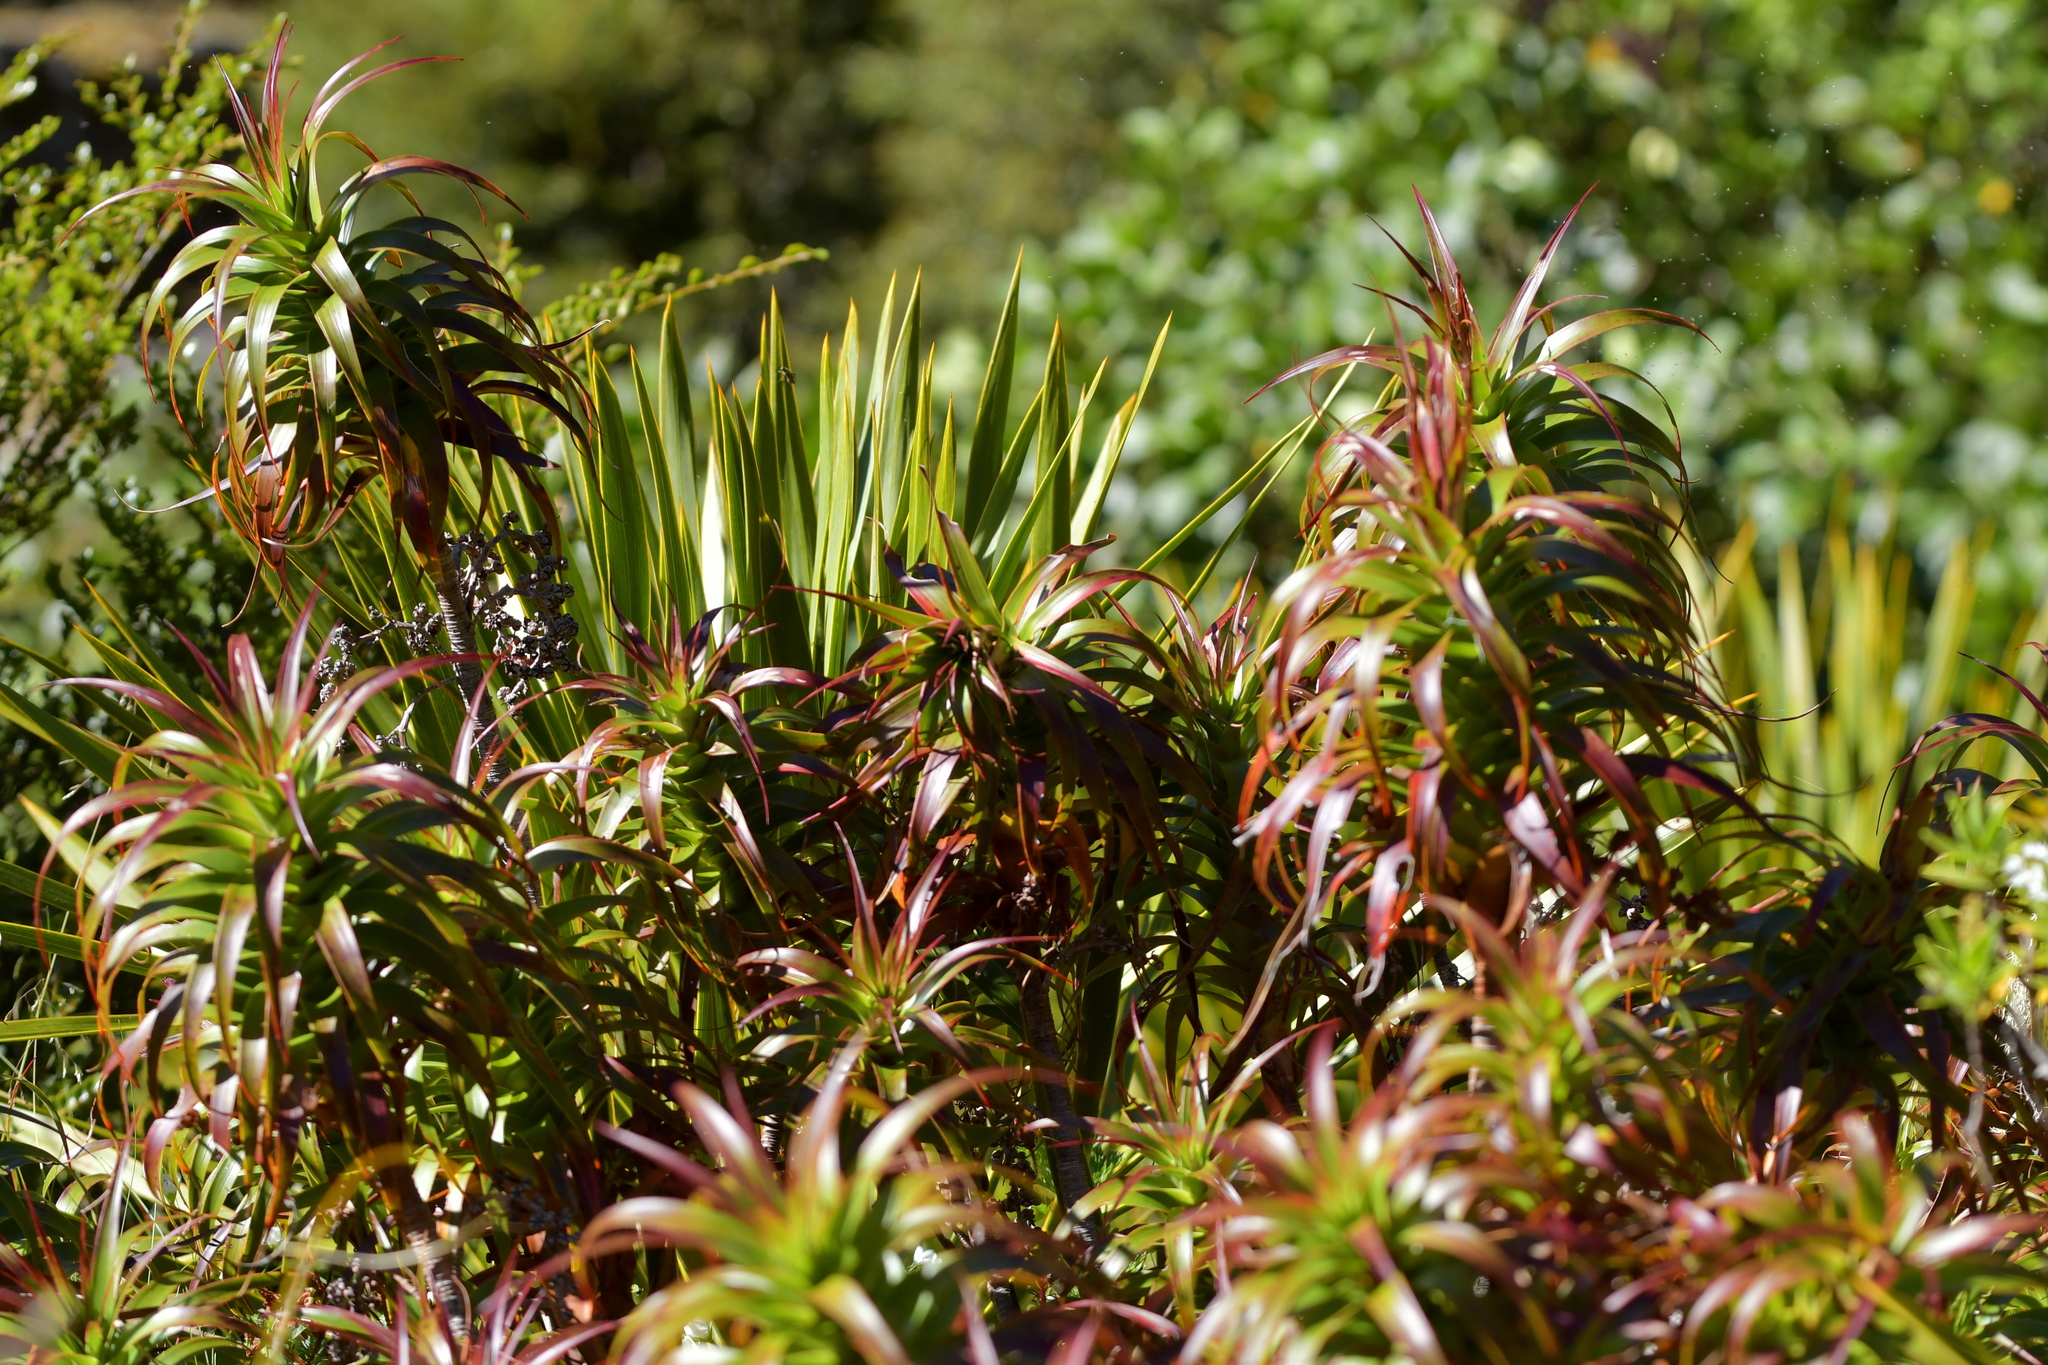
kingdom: Plantae
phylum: Tracheophyta
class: Magnoliopsida
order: Ericales
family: Ericaceae
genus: Dracophyllum
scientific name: Dracophyllum menziesii
